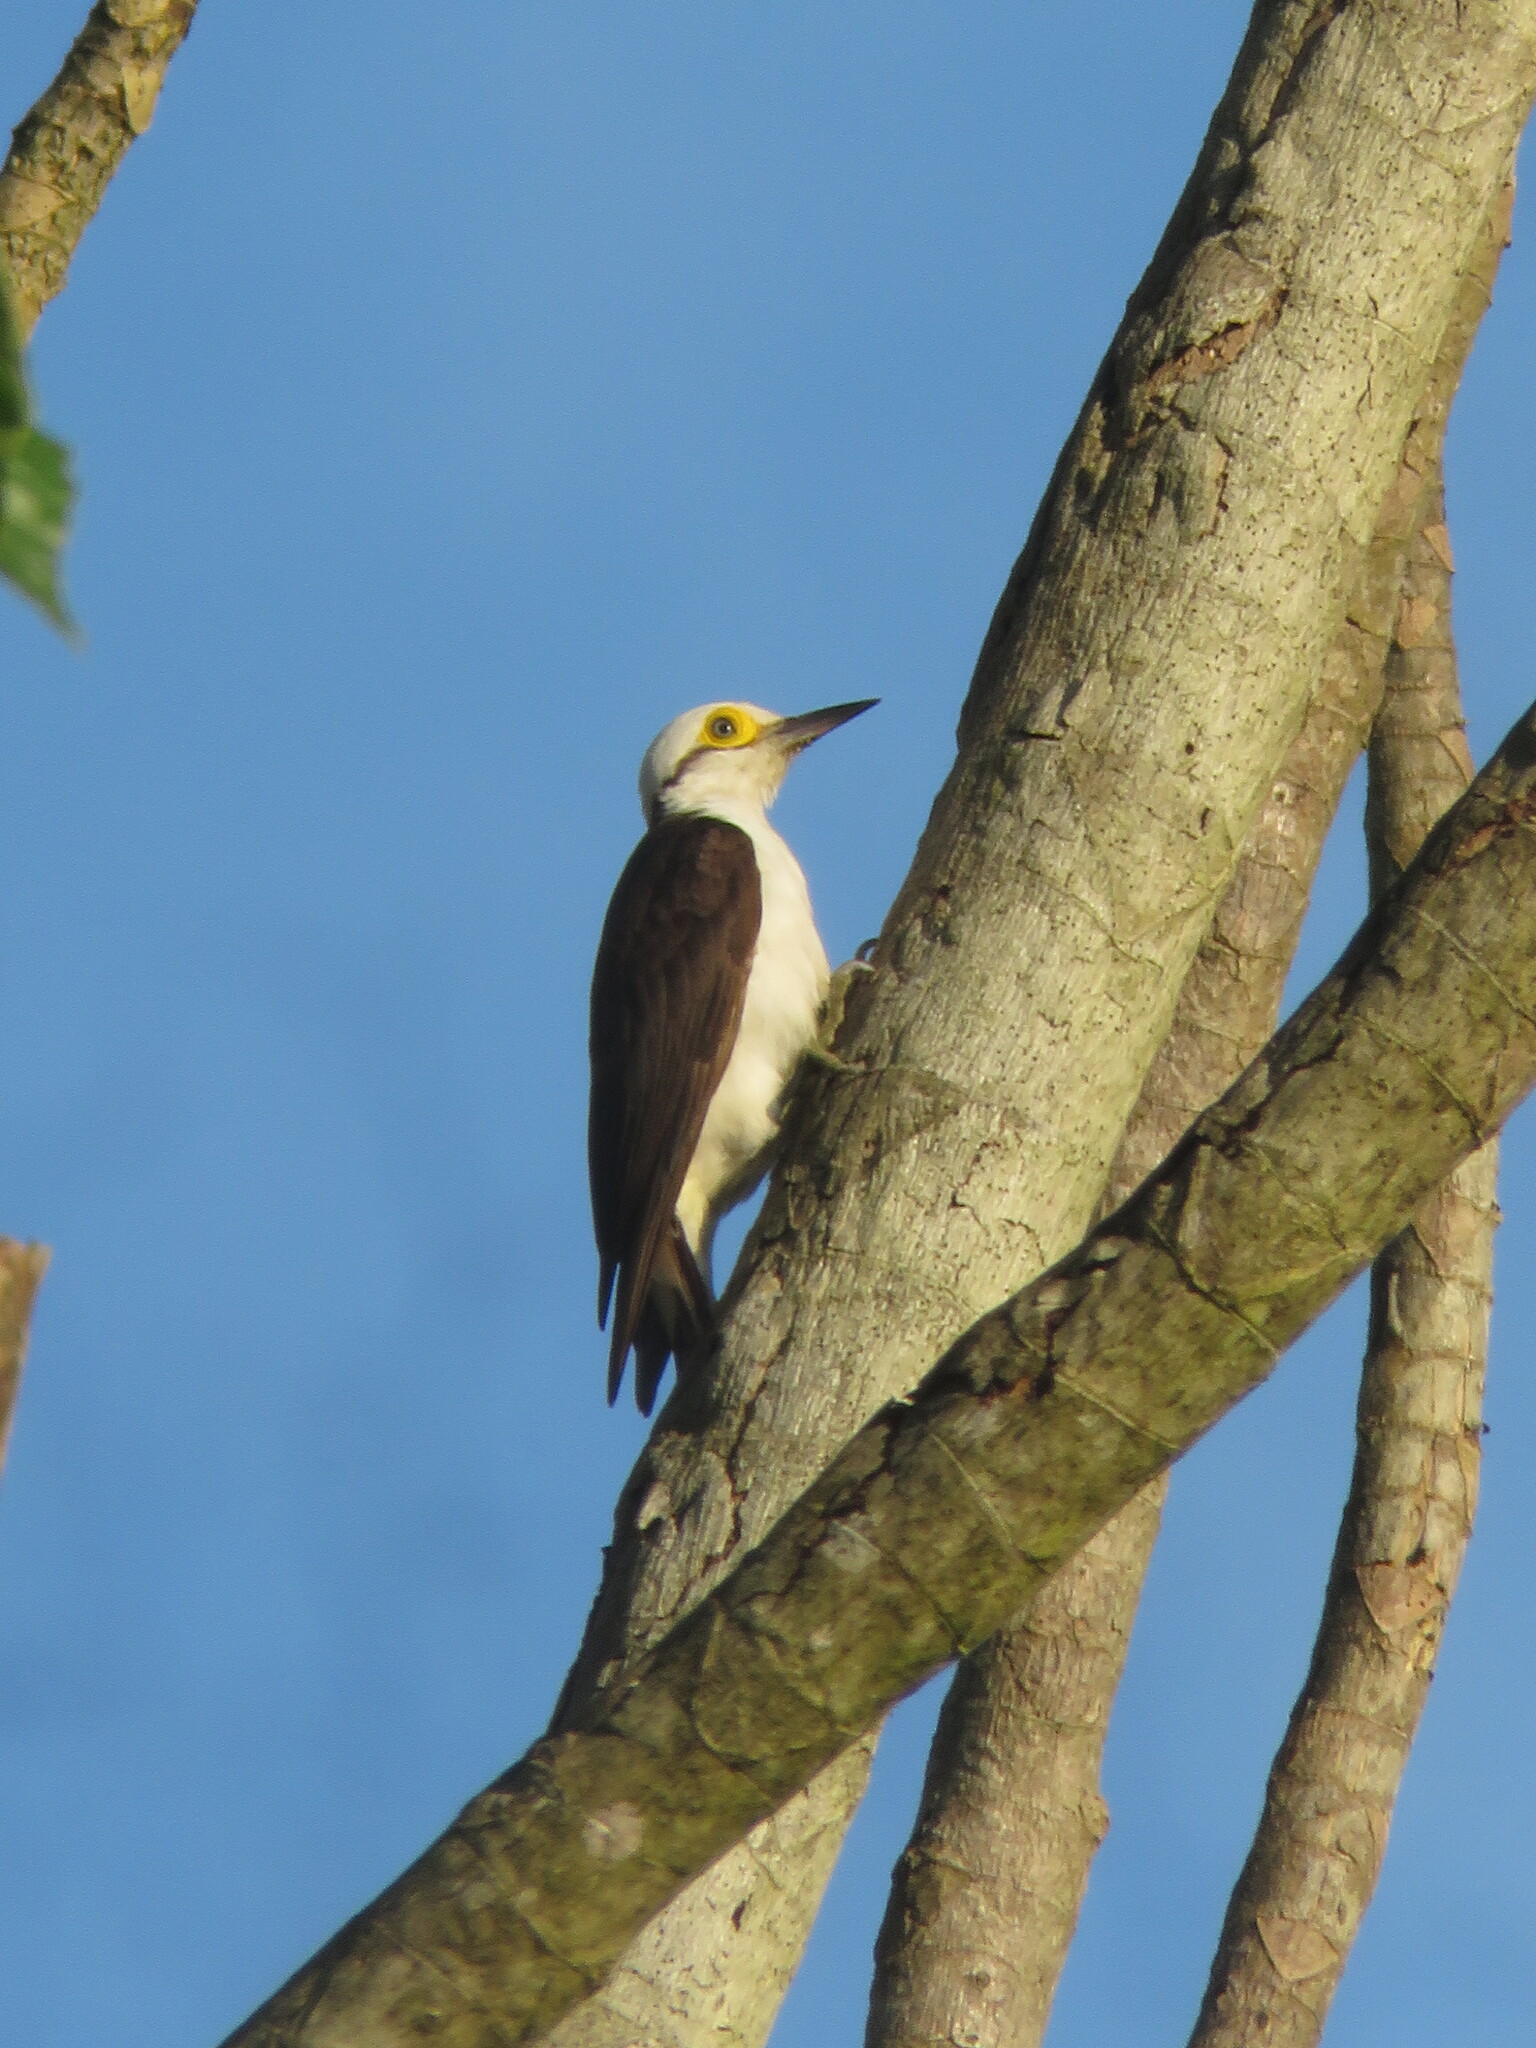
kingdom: Animalia
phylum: Chordata
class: Aves
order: Piciformes
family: Picidae
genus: Melanerpes
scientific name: Melanerpes candidus
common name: White woodpecker
